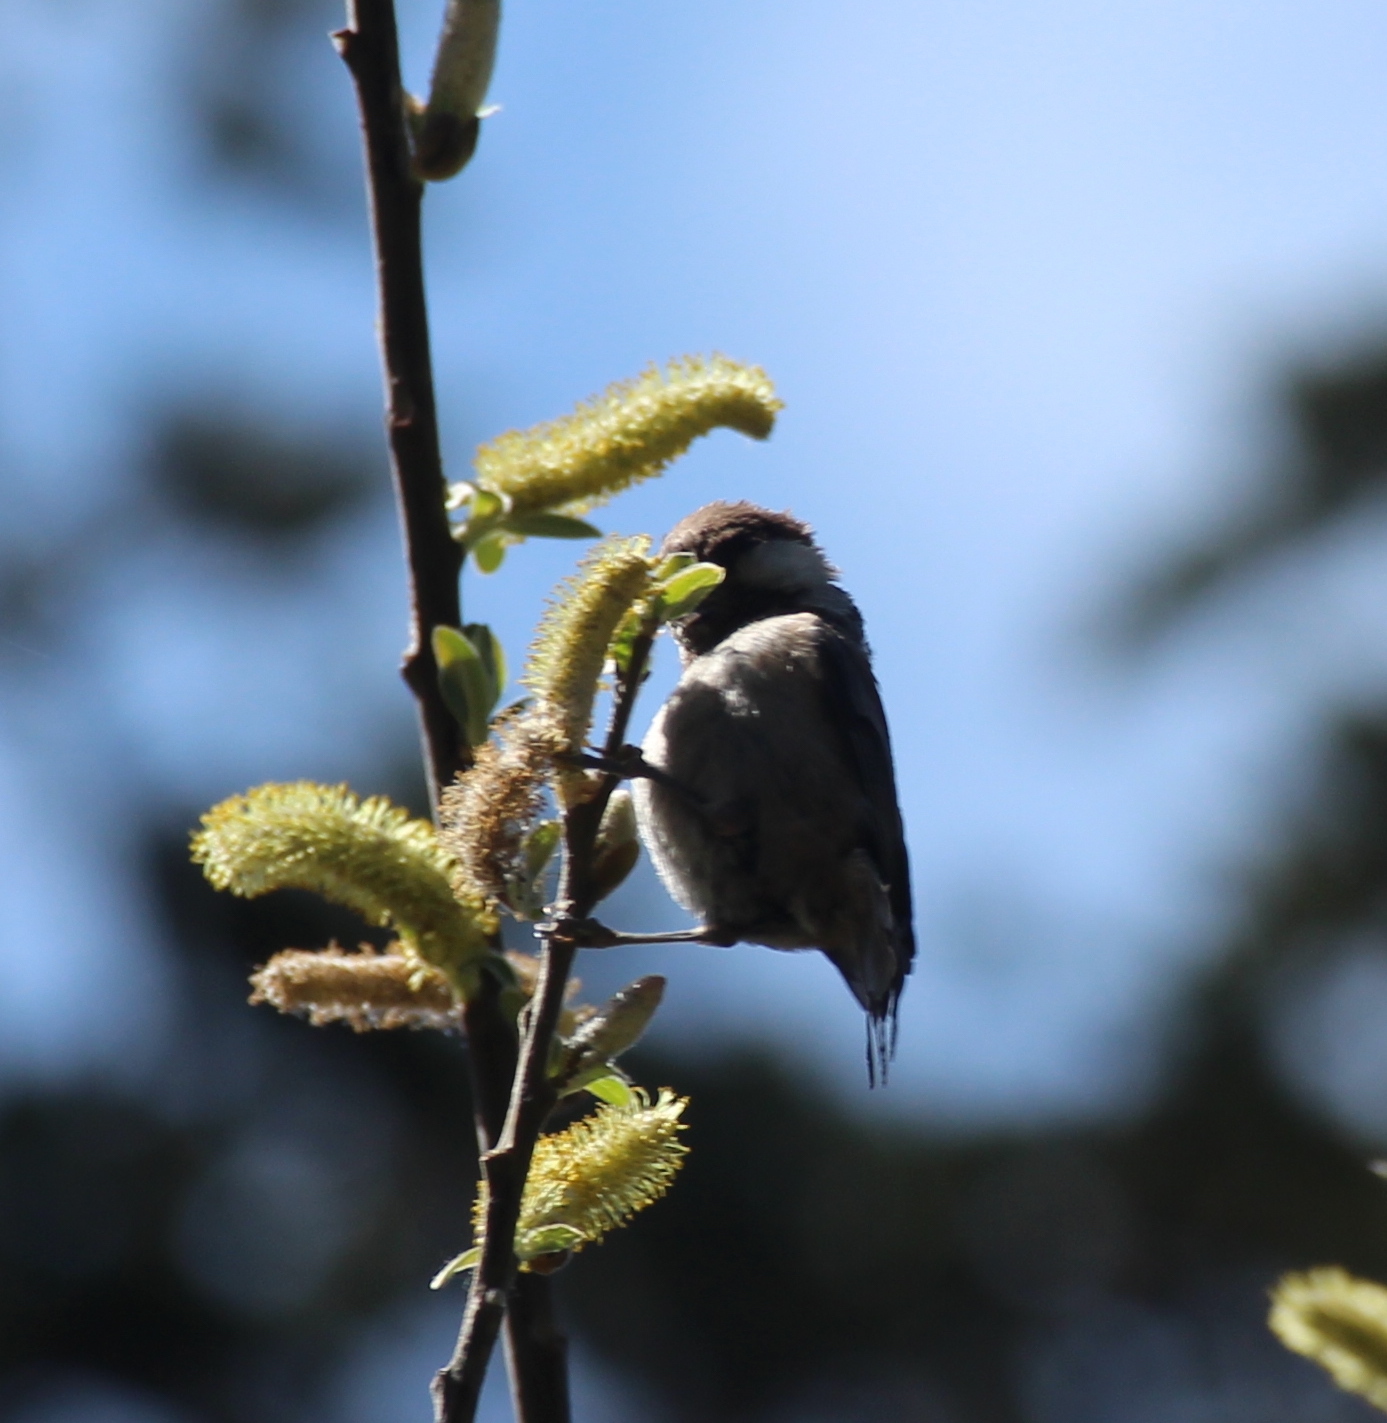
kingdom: Animalia
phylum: Chordata
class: Aves
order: Passeriformes
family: Paridae
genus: Poecile
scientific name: Poecile rufescens
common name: Chestnut-backed chickadee
